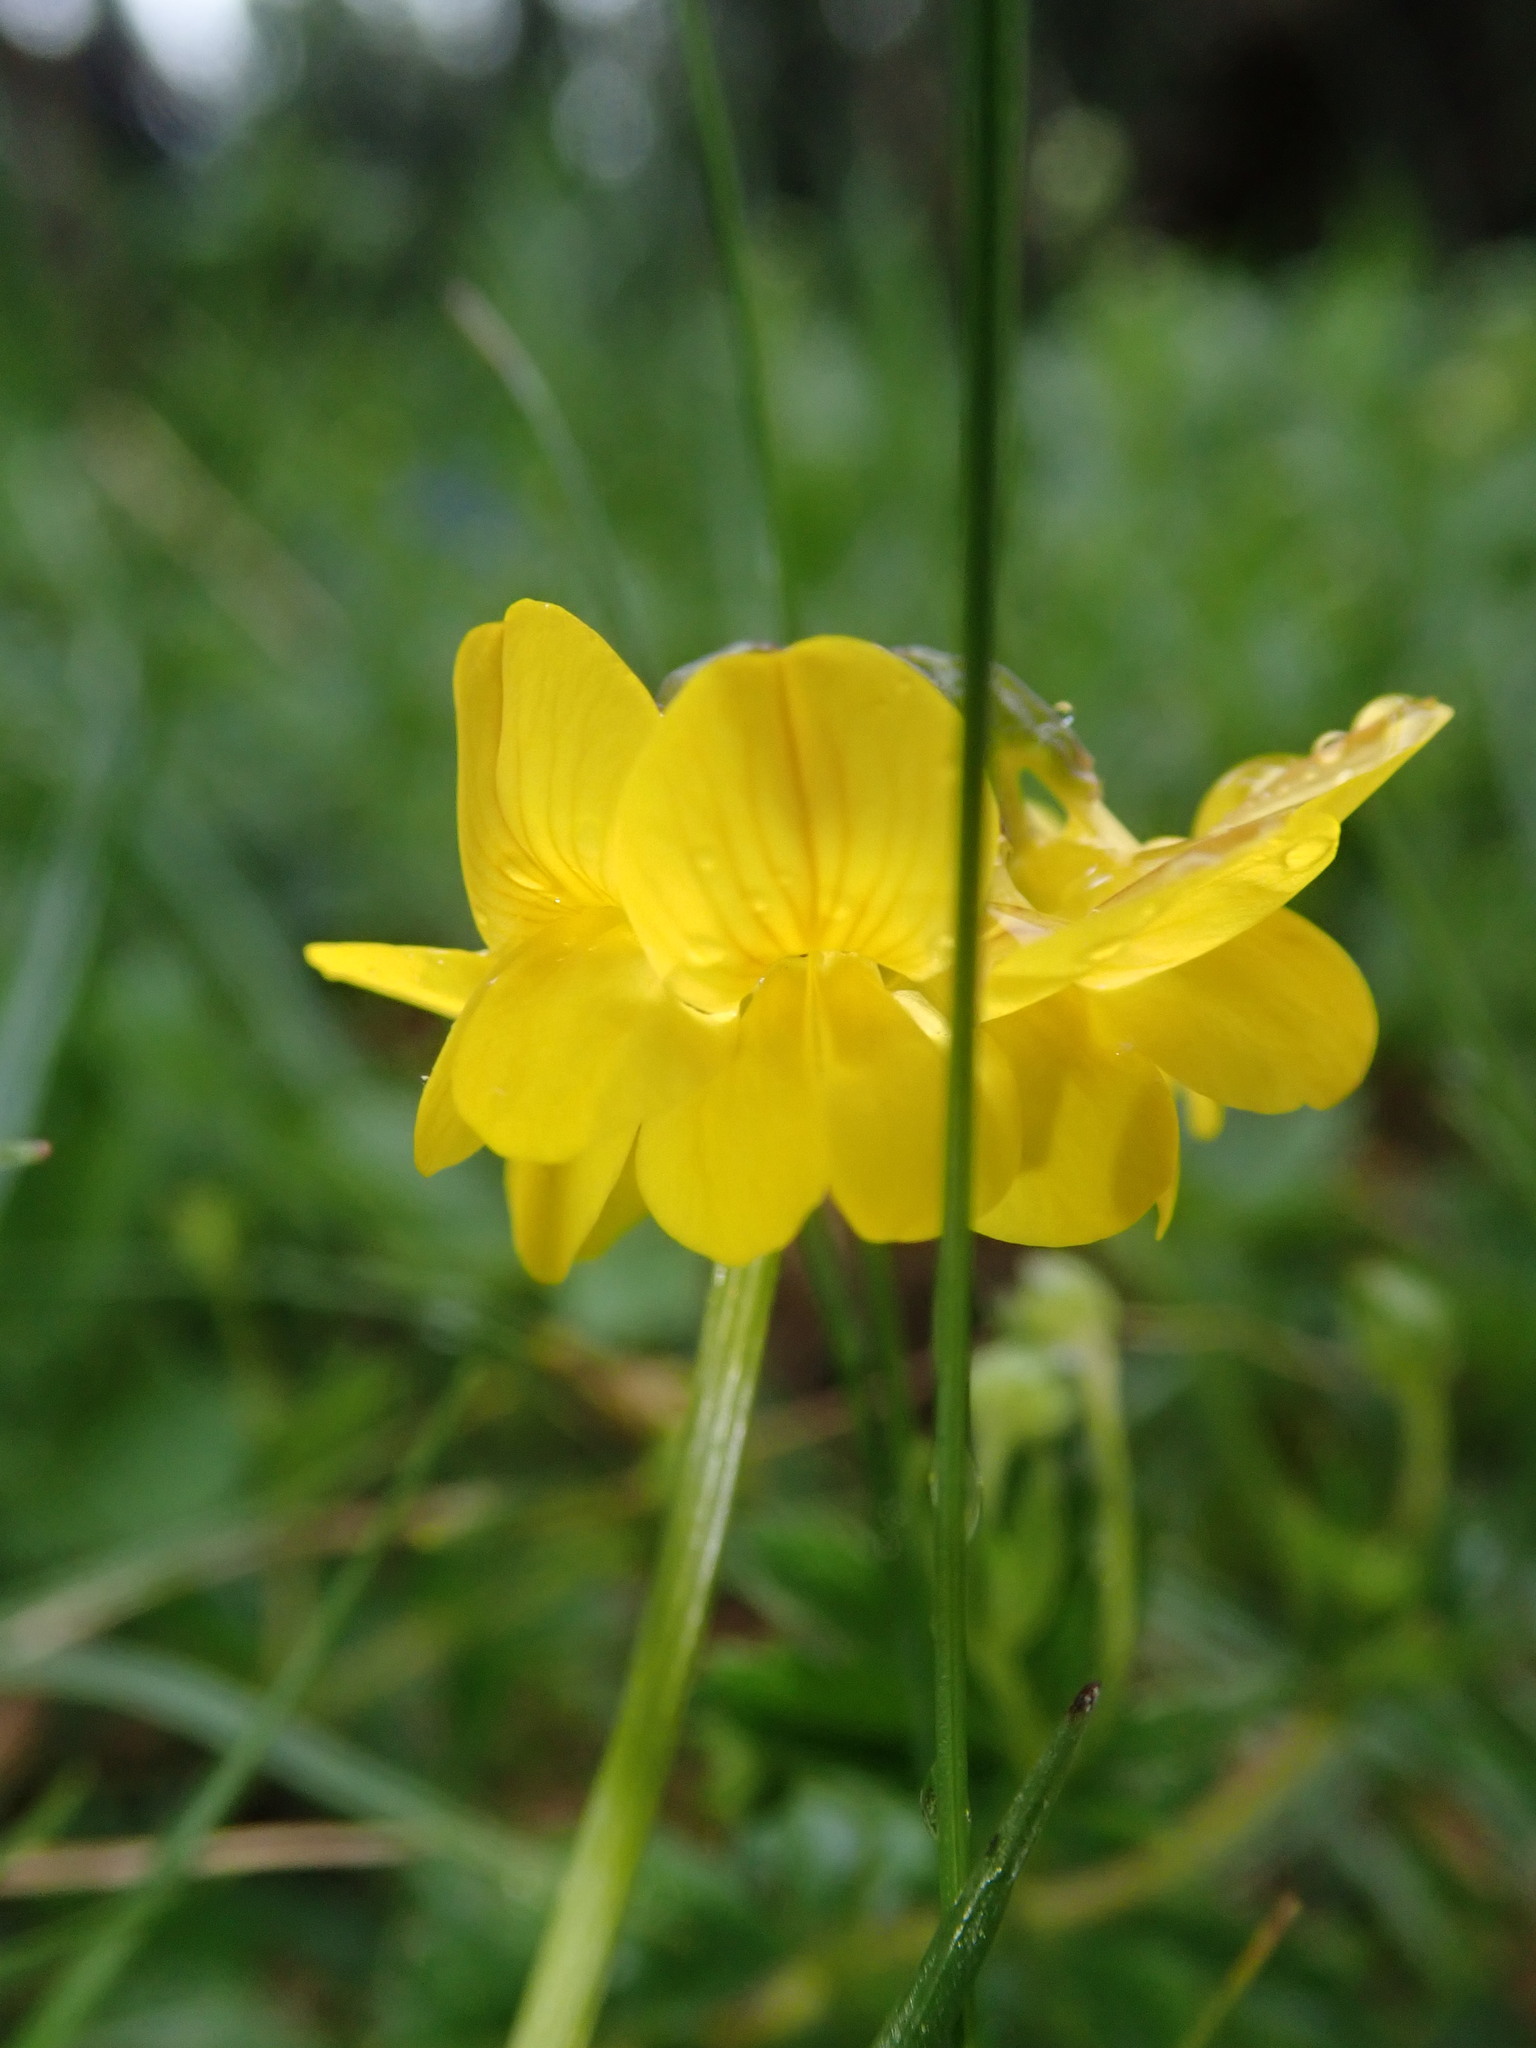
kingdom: Plantae
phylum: Tracheophyta
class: Magnoliopsida
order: Fabales
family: Fabaceae
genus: Hippocrepis
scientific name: Hippocrepis comosa
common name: Horseshoe vetch
